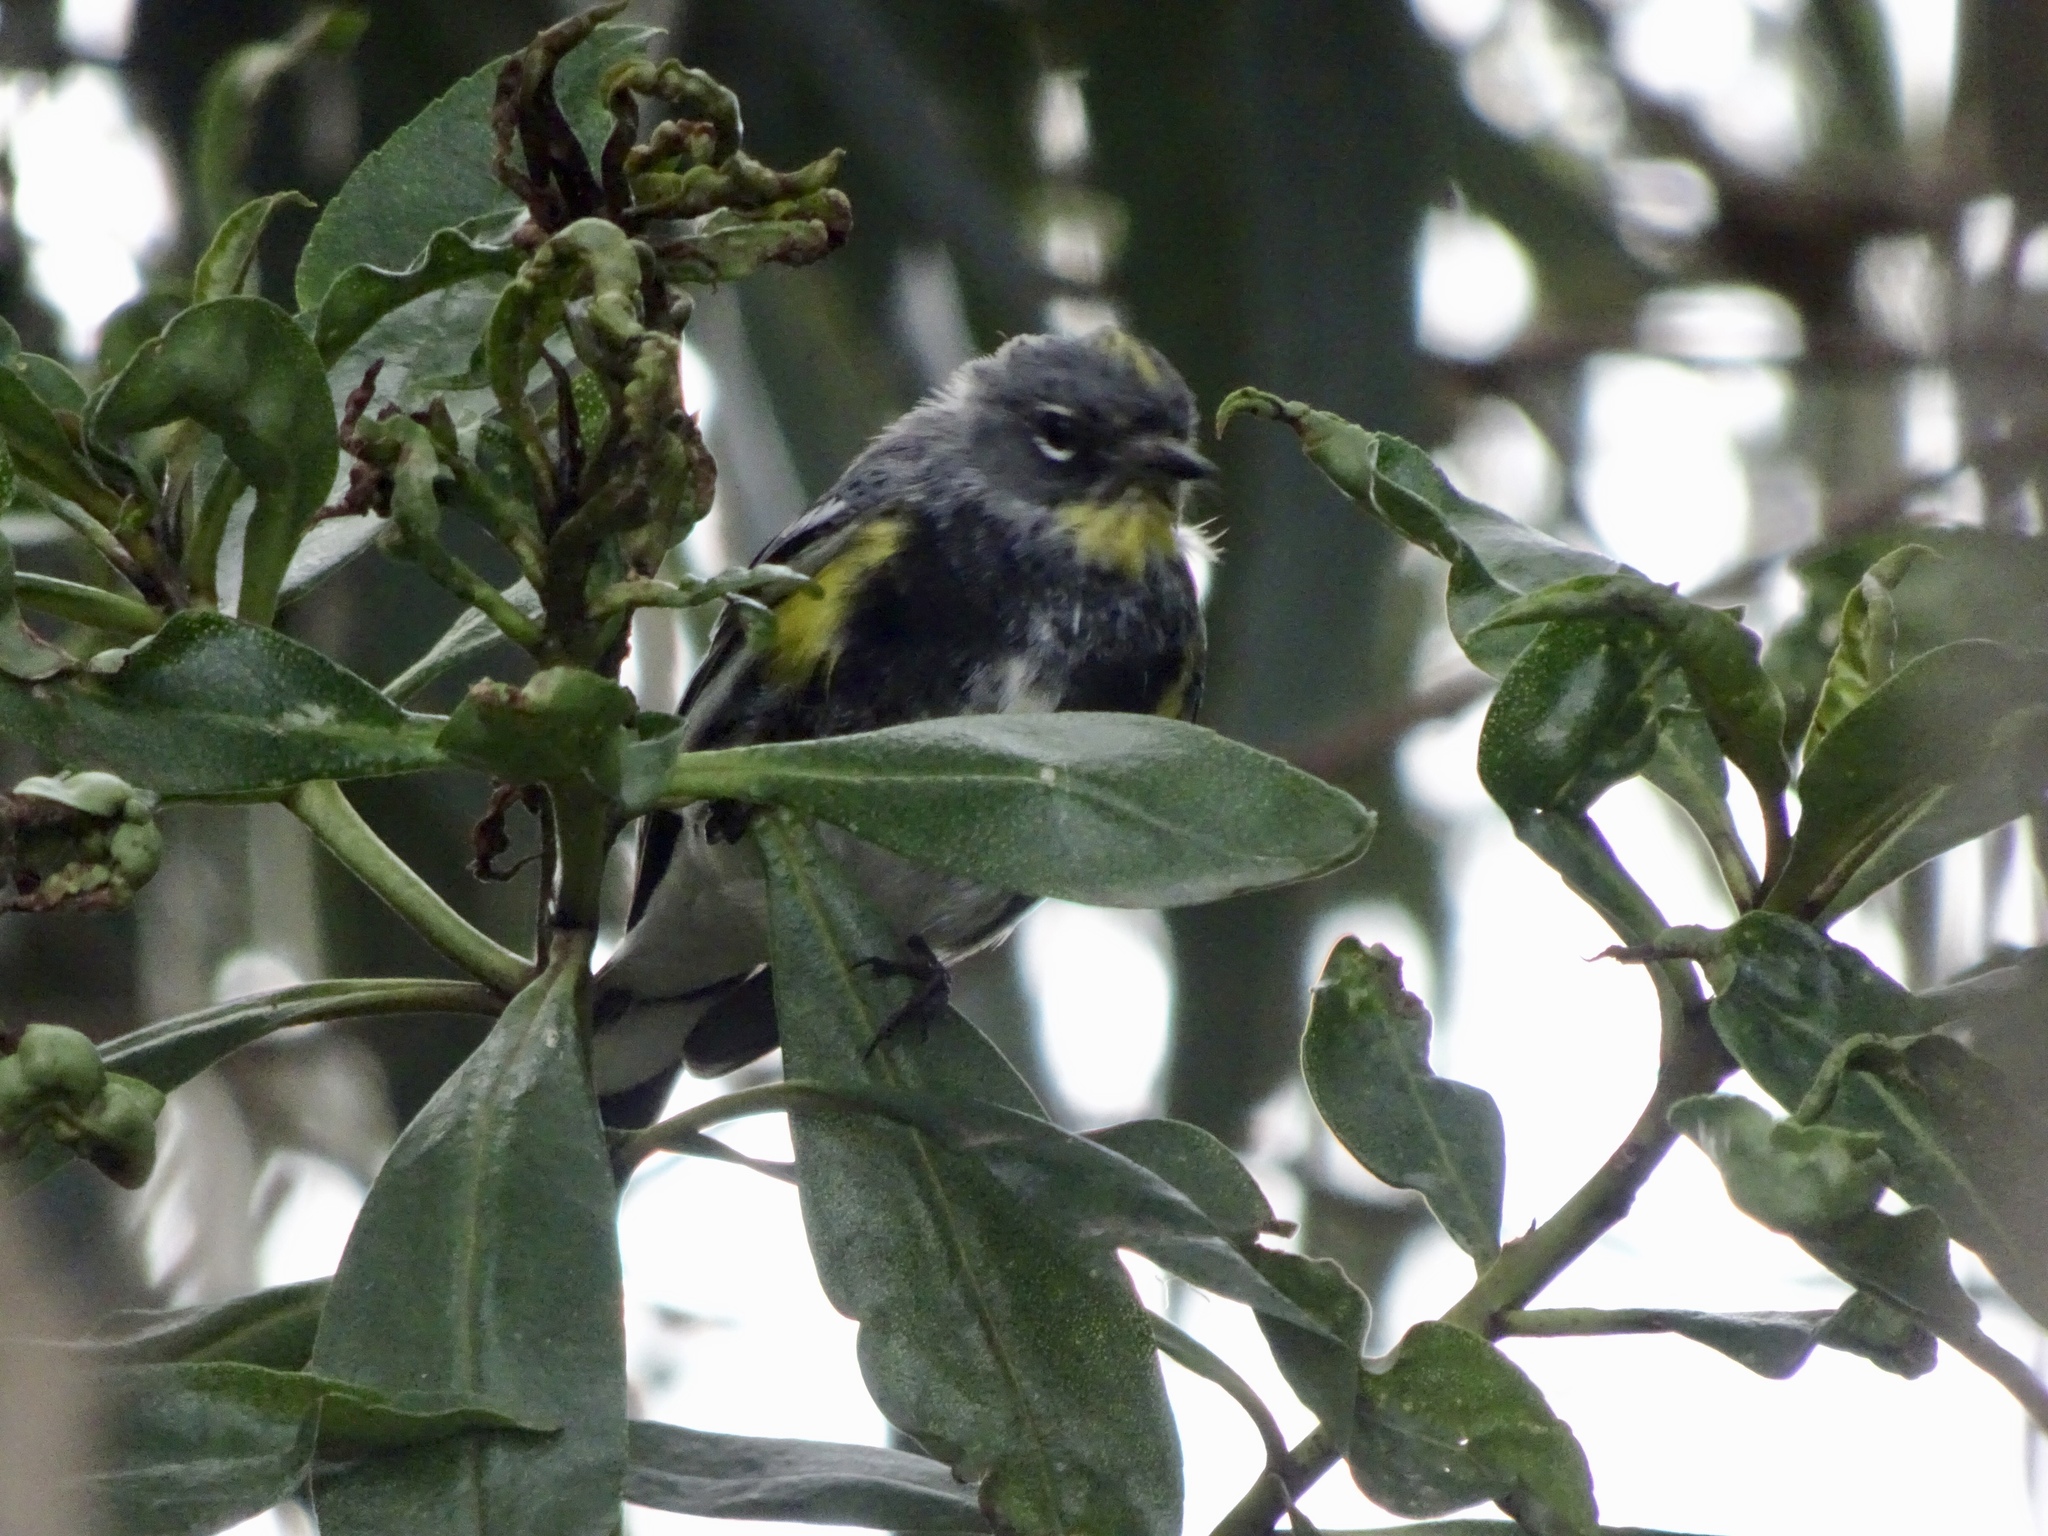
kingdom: Animalia
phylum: Chordata
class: Aves
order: Passeriformes
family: Parulidae
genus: Setophaga
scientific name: Setophaga coronata
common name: Myrtle warbler
